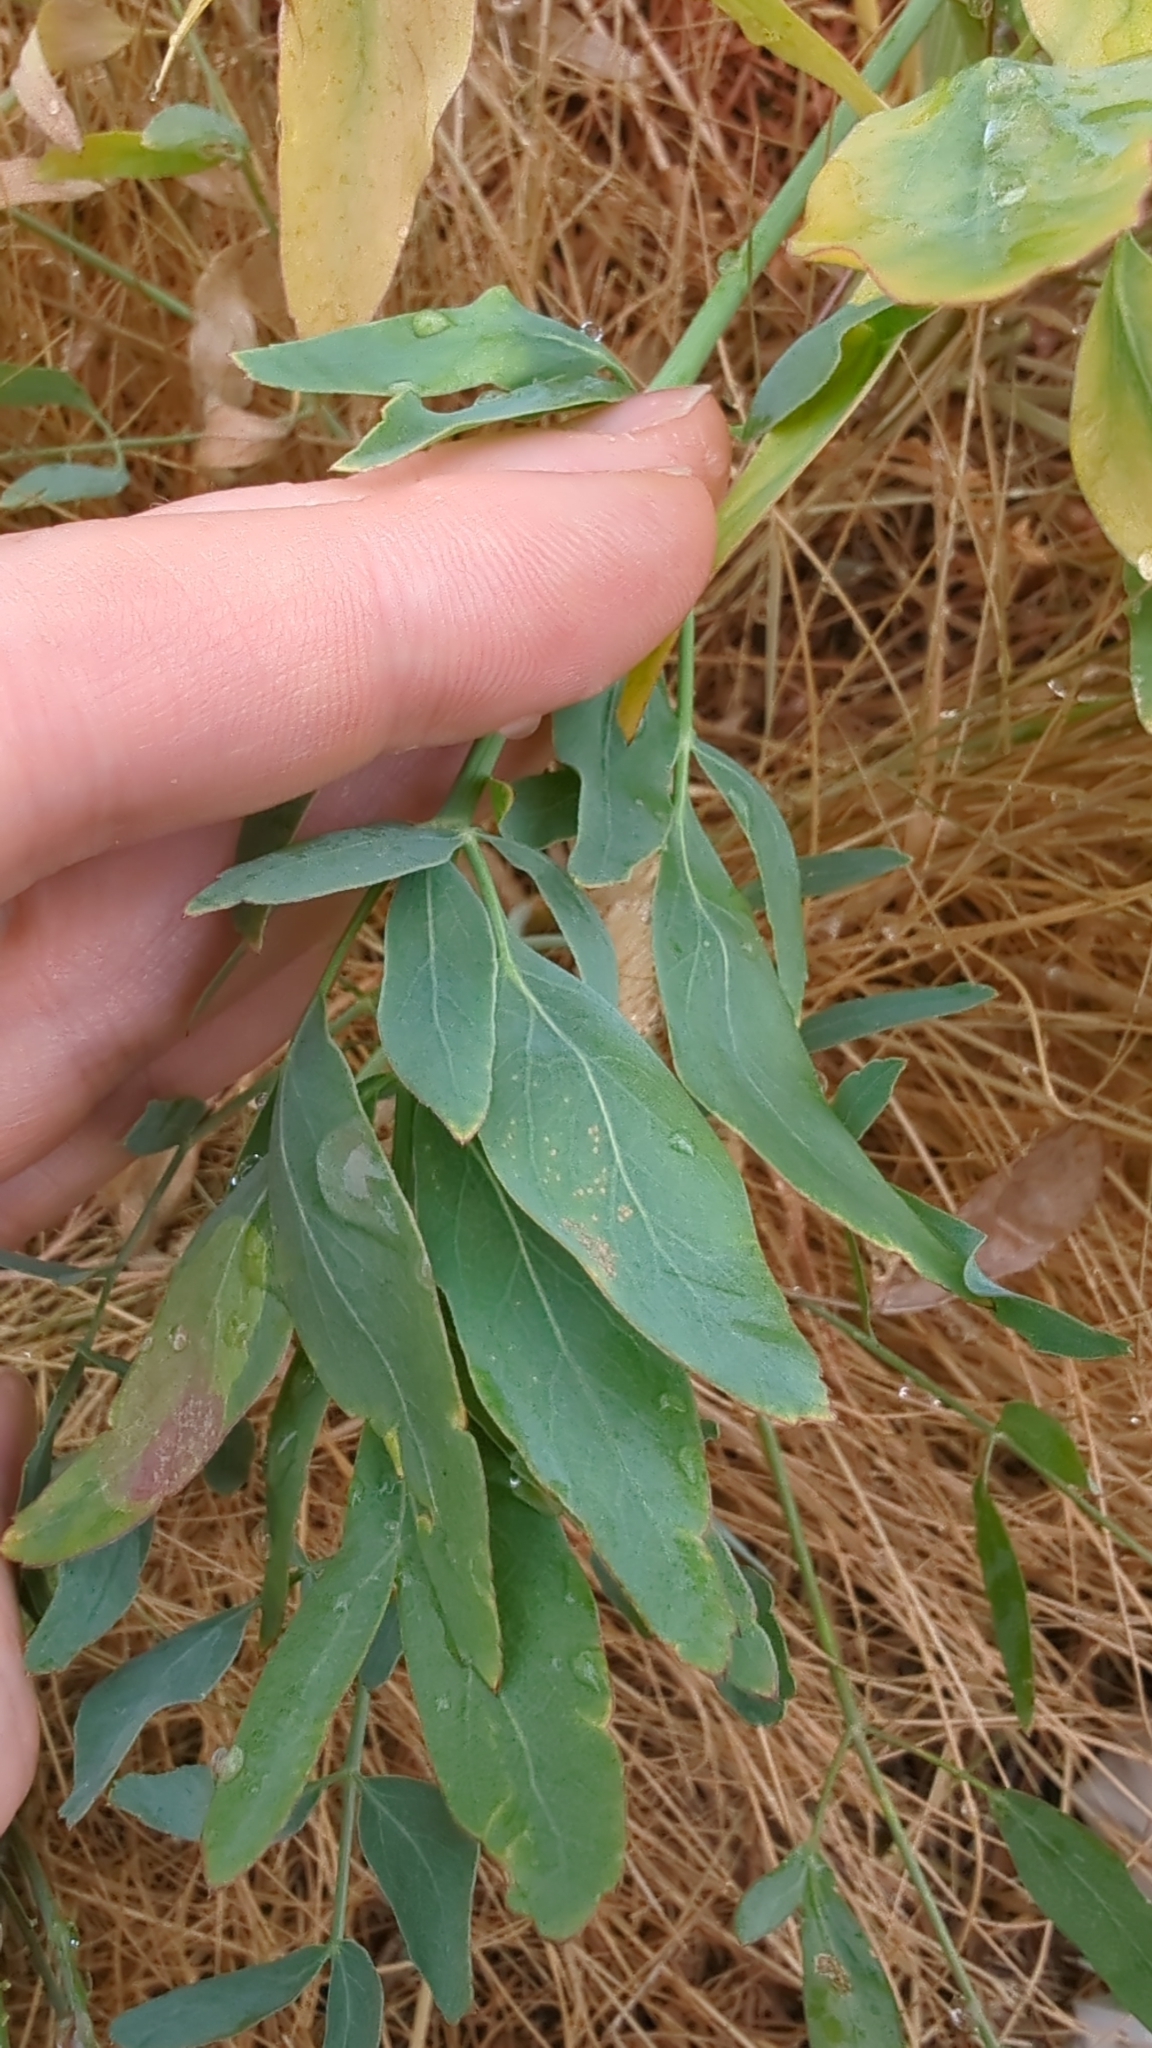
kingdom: Plantae
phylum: Tracheophyta
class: Magnoliopsida
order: Apiales
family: Apiaceae
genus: Lomatium
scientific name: Lomatium nudicaule
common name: Pestle lomatium
